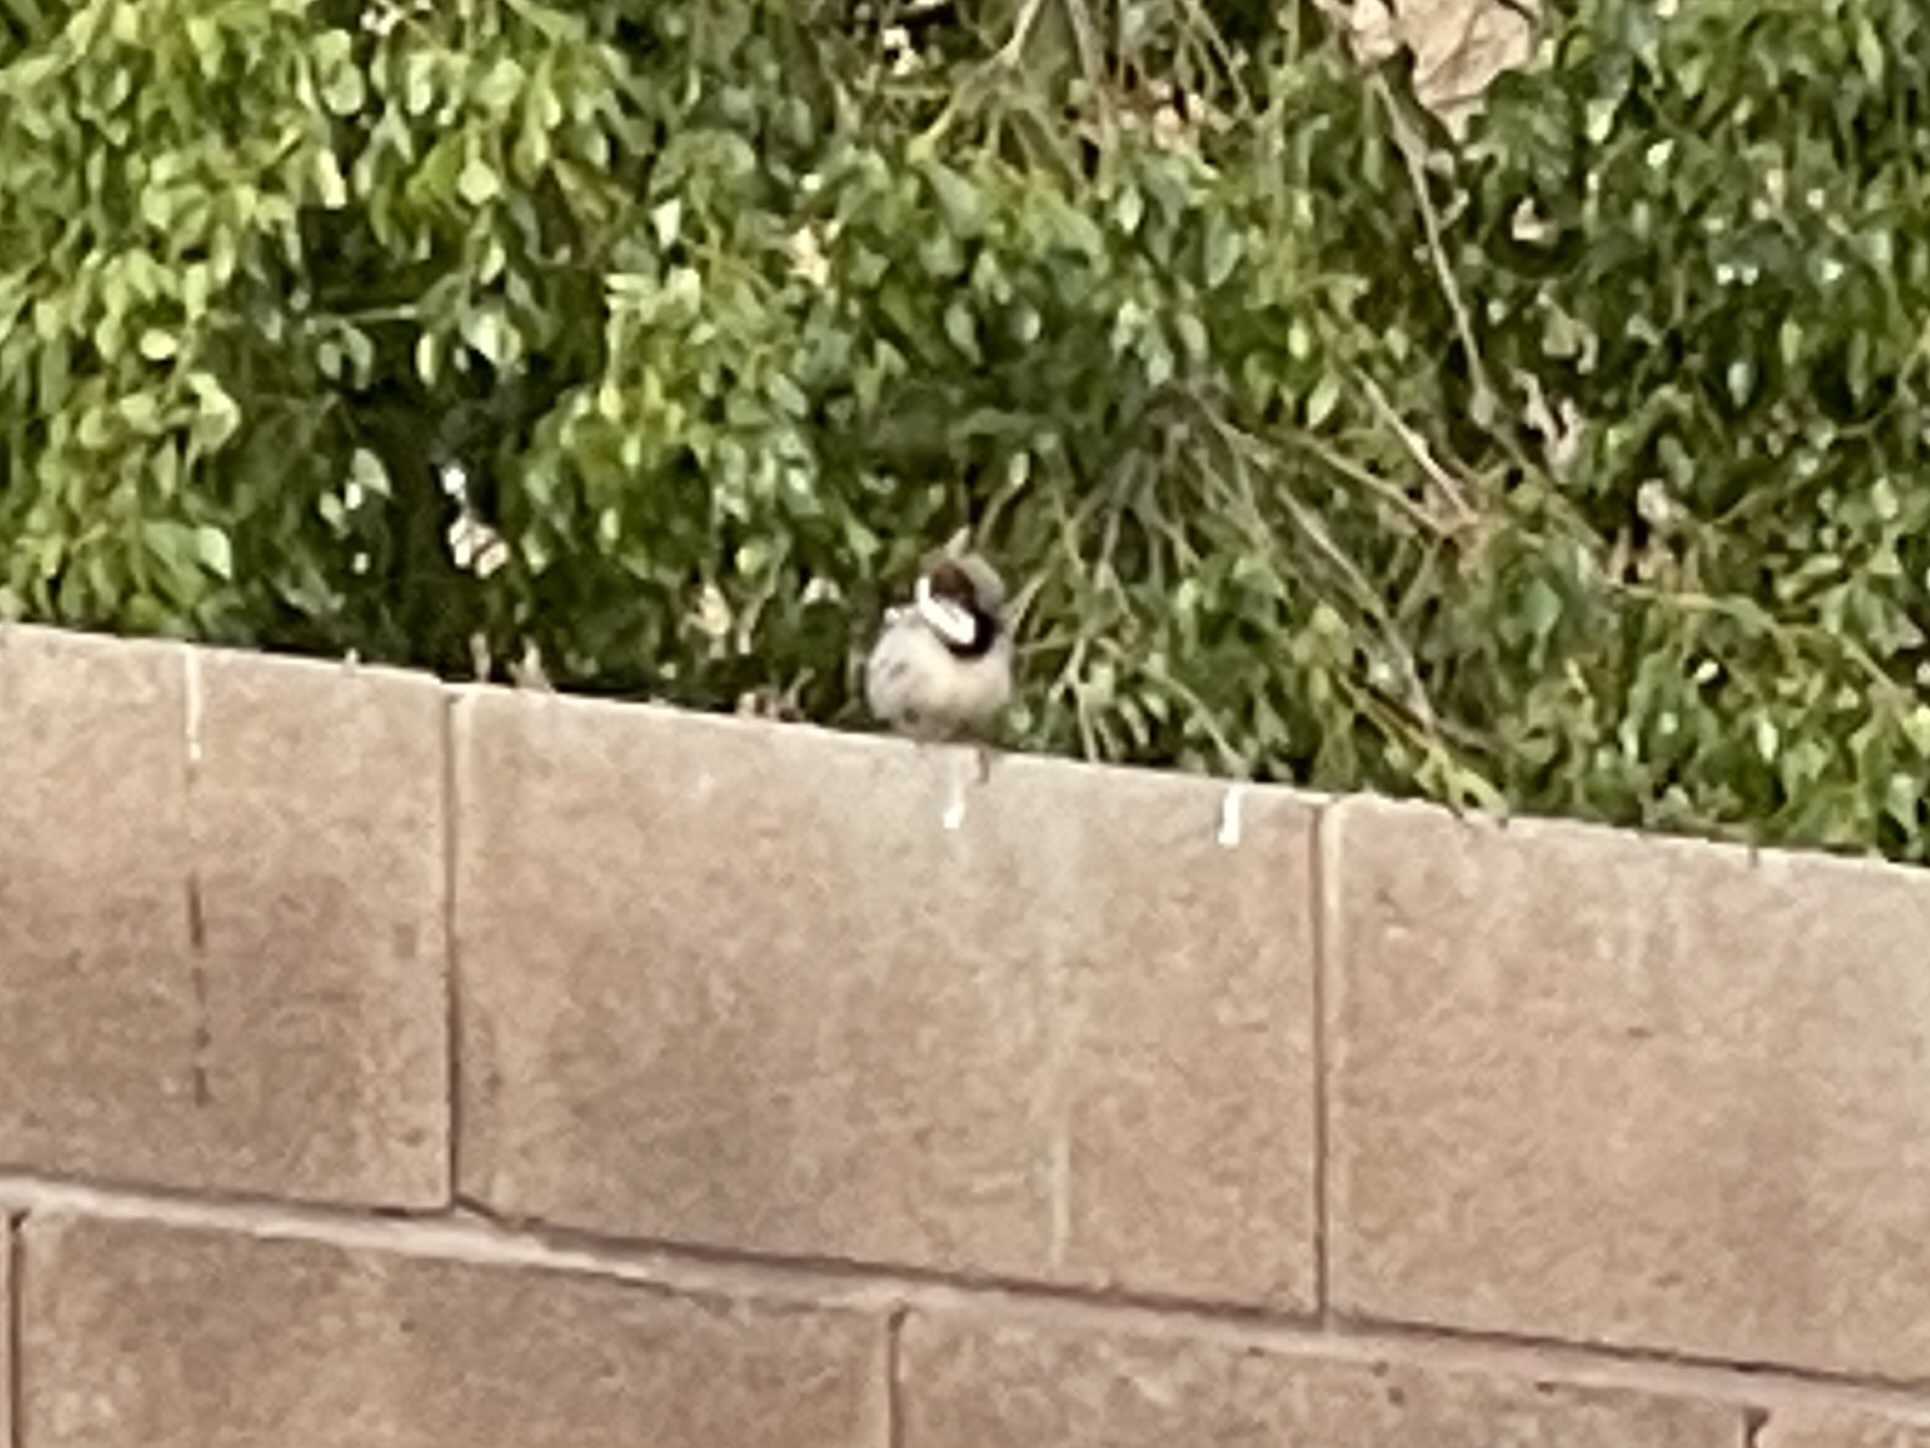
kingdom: Animalia
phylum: Chordata
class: Aves
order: Passeriformes
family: Passeridae
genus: Passer
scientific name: Passer domesticus
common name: House sparrow
